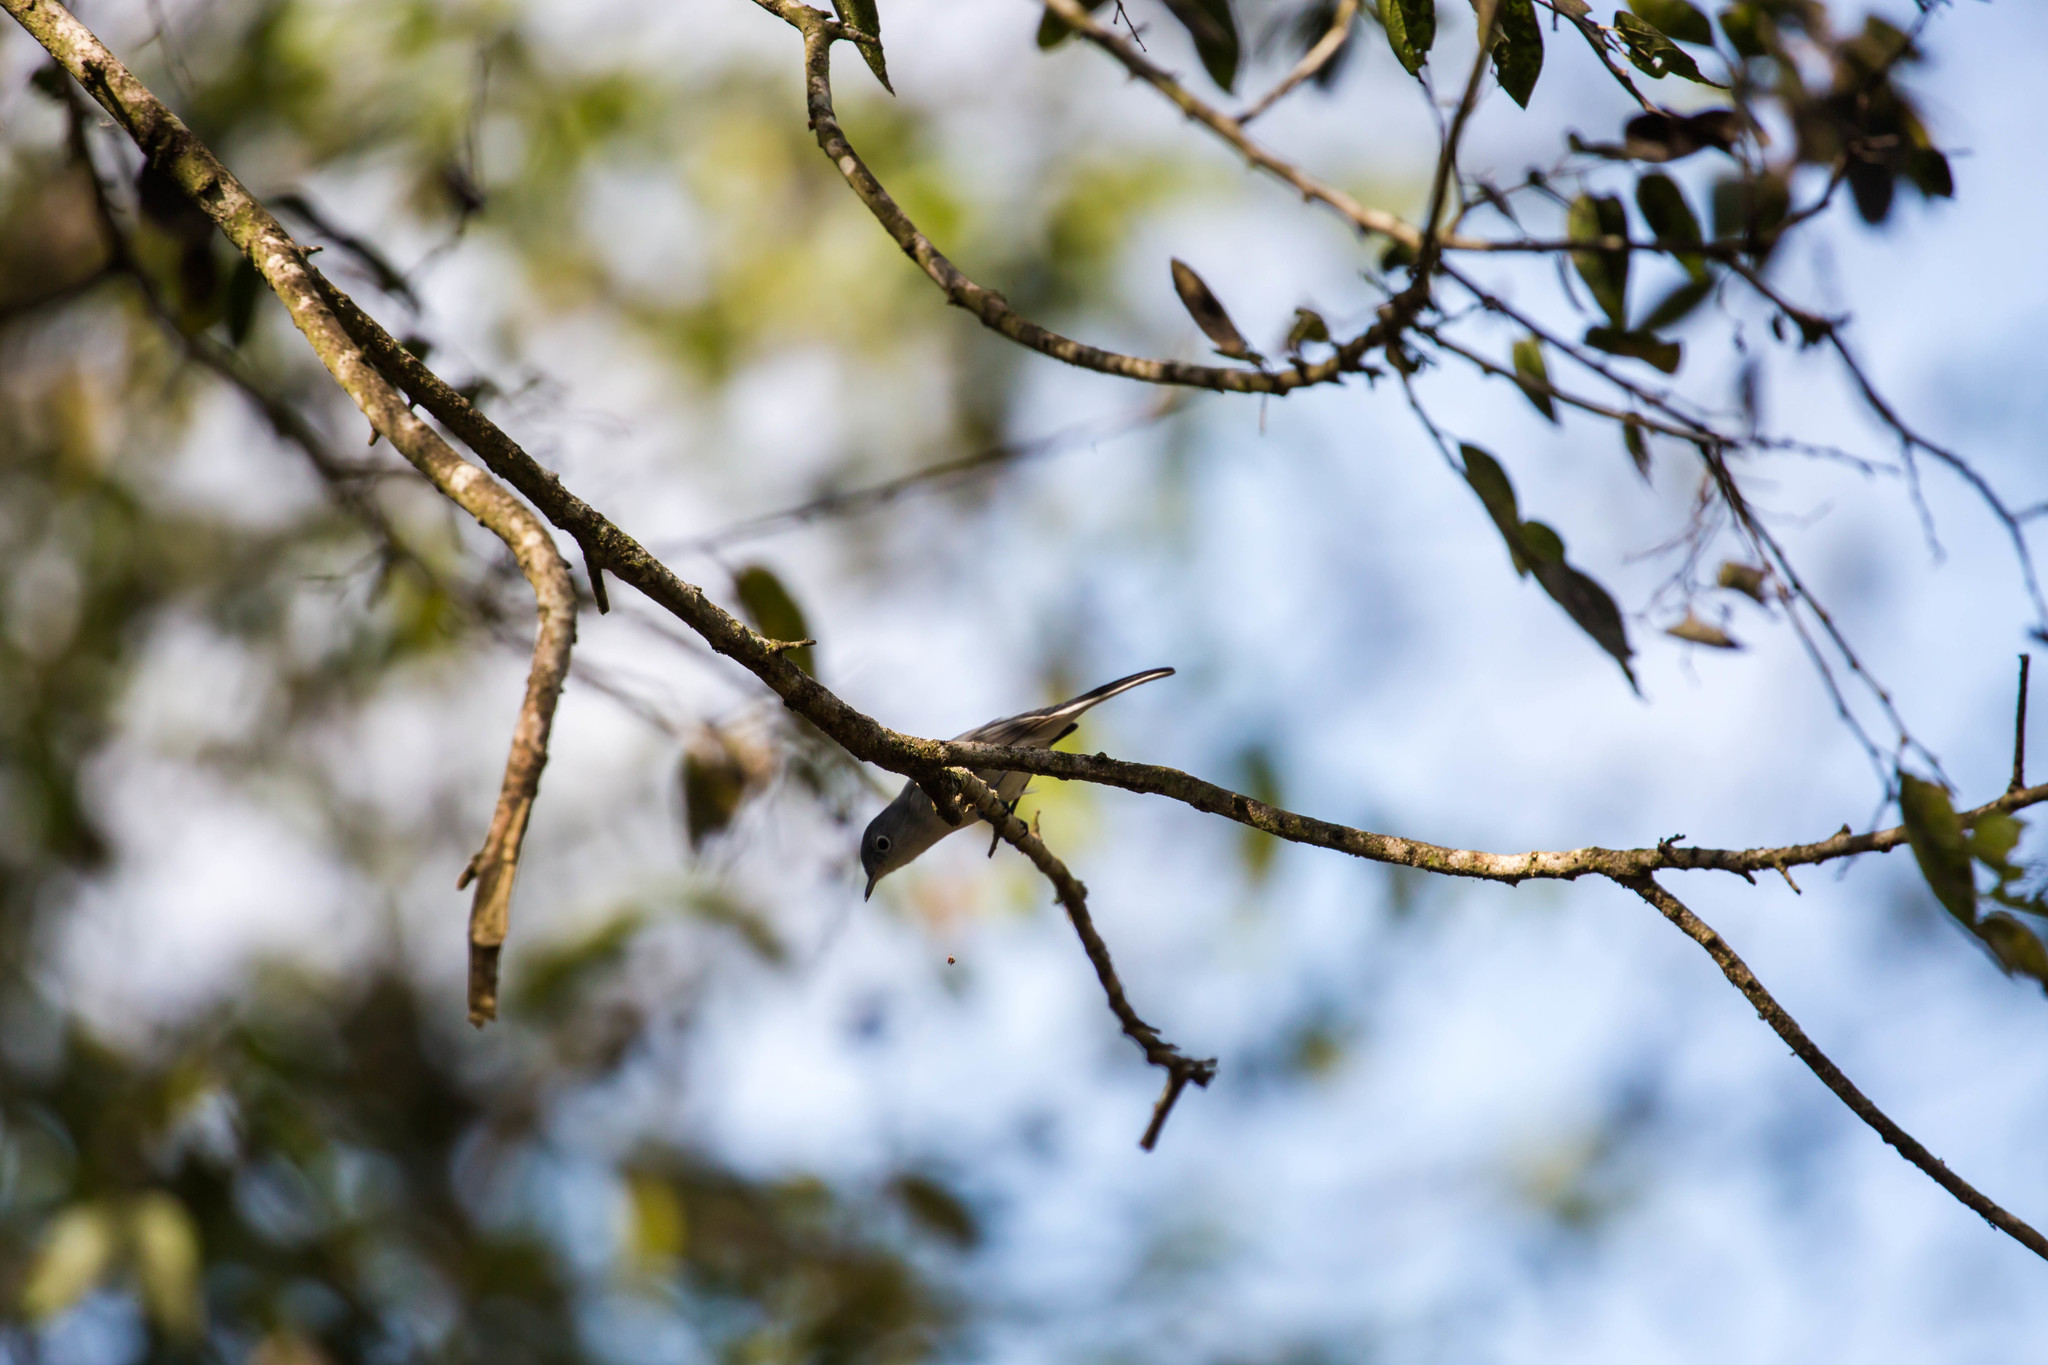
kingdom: Animalia
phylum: Chordata
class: Aves
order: Passeriformes
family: Polioptilidae
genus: Polioptila
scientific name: Polioptila caerulea
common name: Blue-gray gnatcatcher
